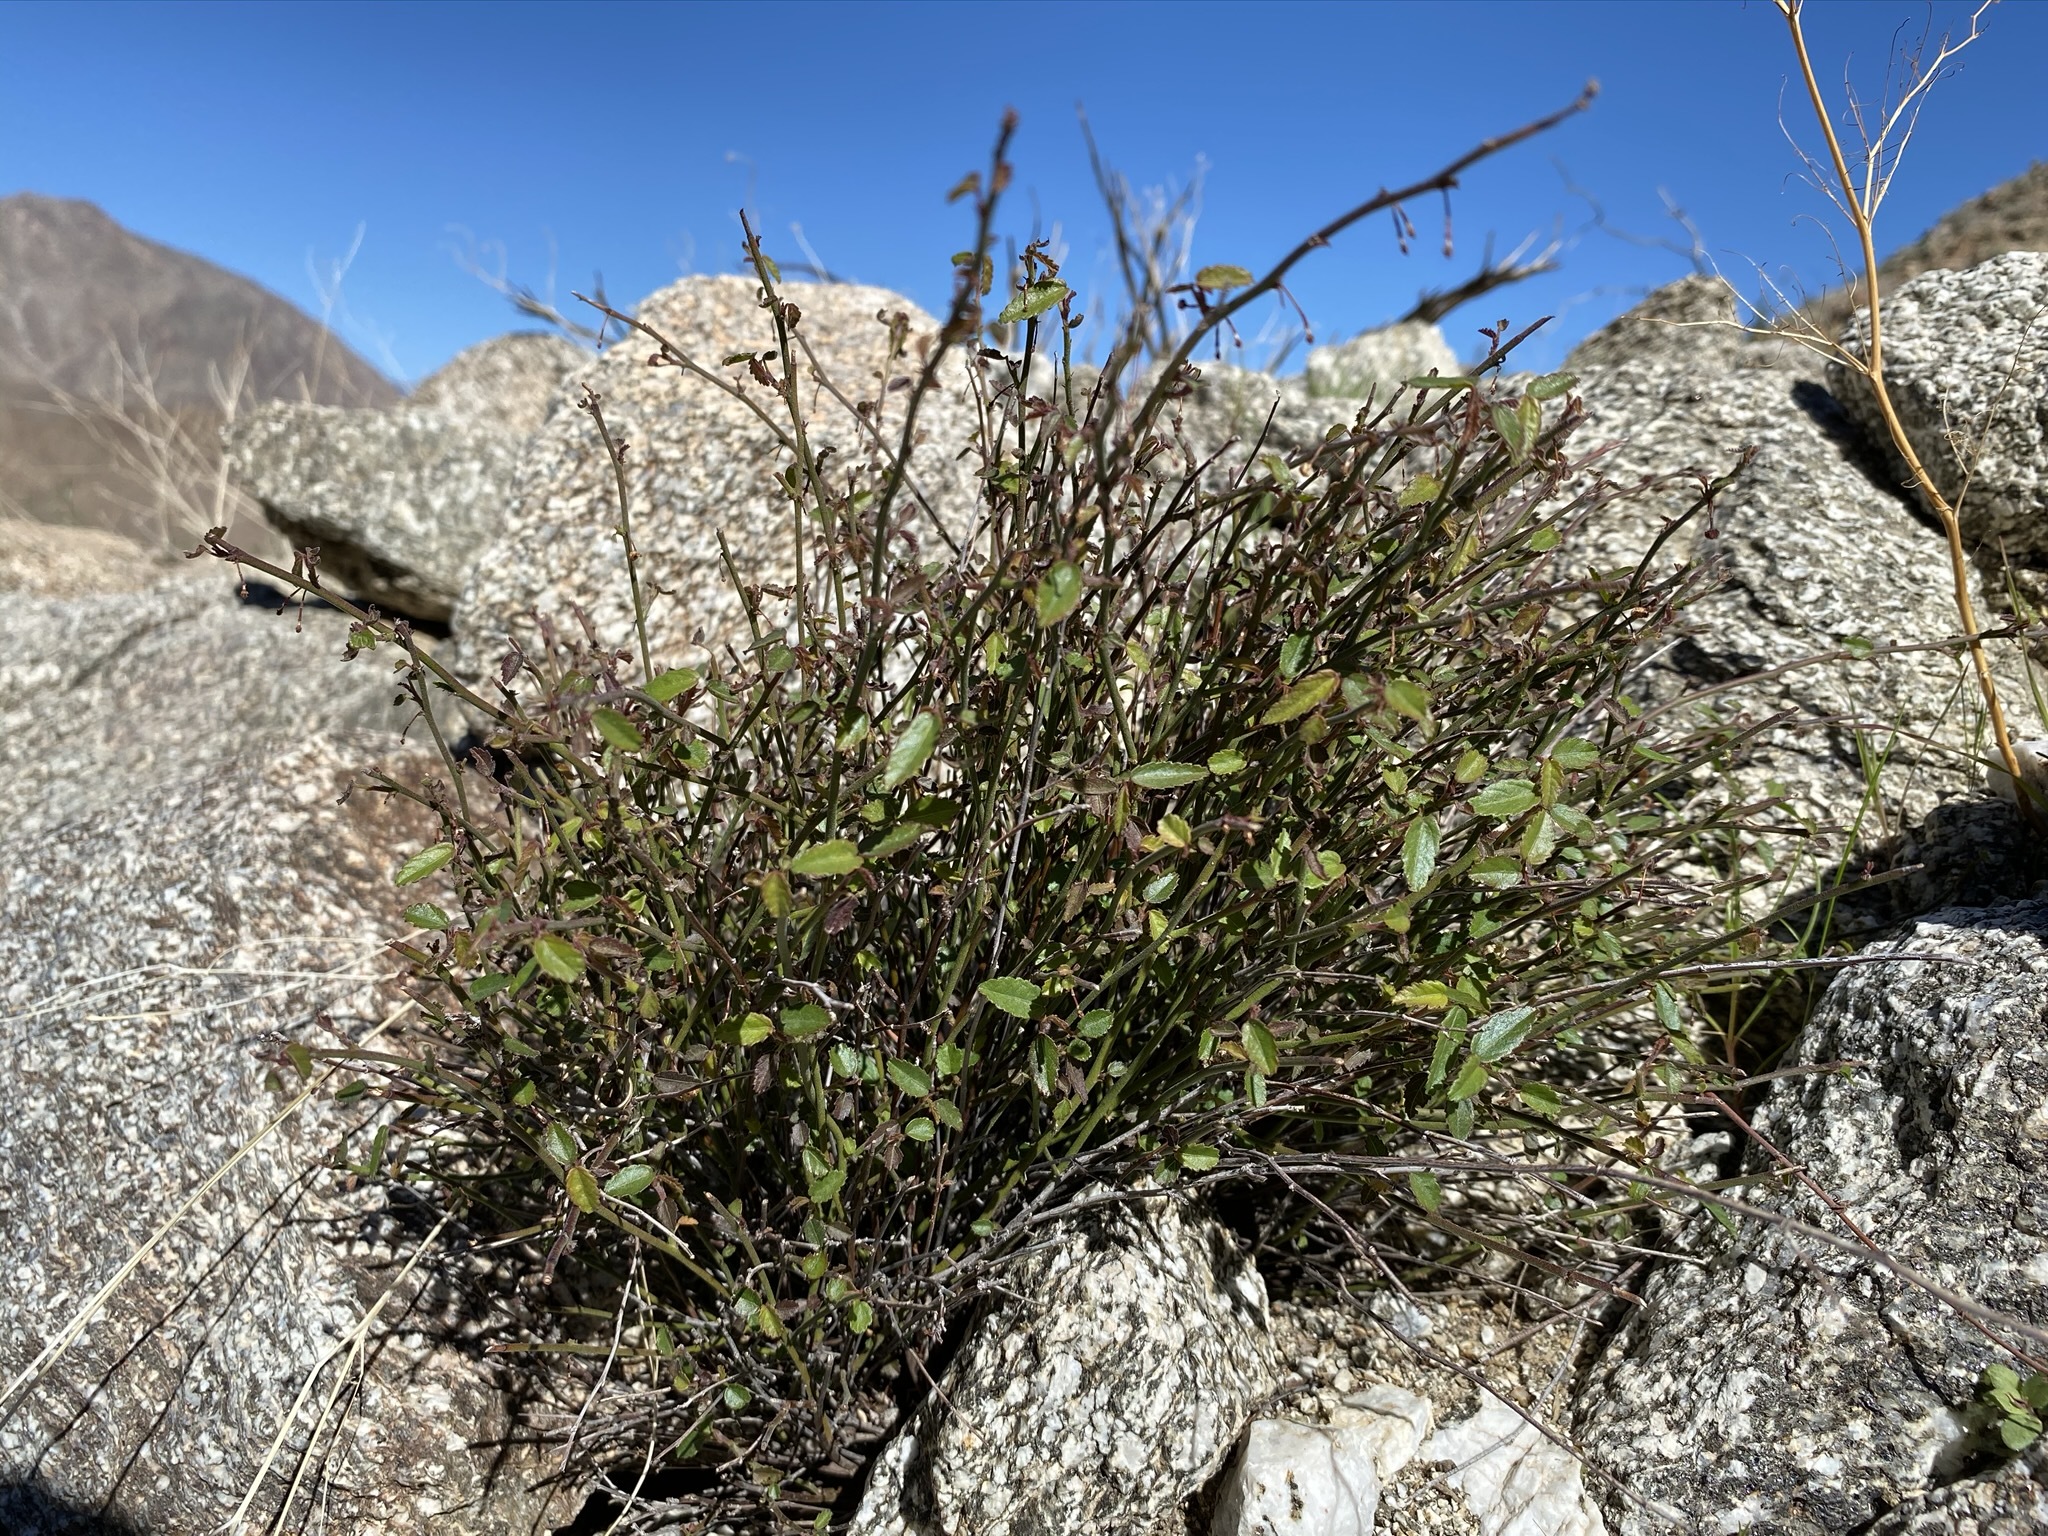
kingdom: Plantae
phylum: Tracheophyta
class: Magnoliopsida
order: Malvales
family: Malvaceae
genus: Ayenia
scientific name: Ayenia compacta
